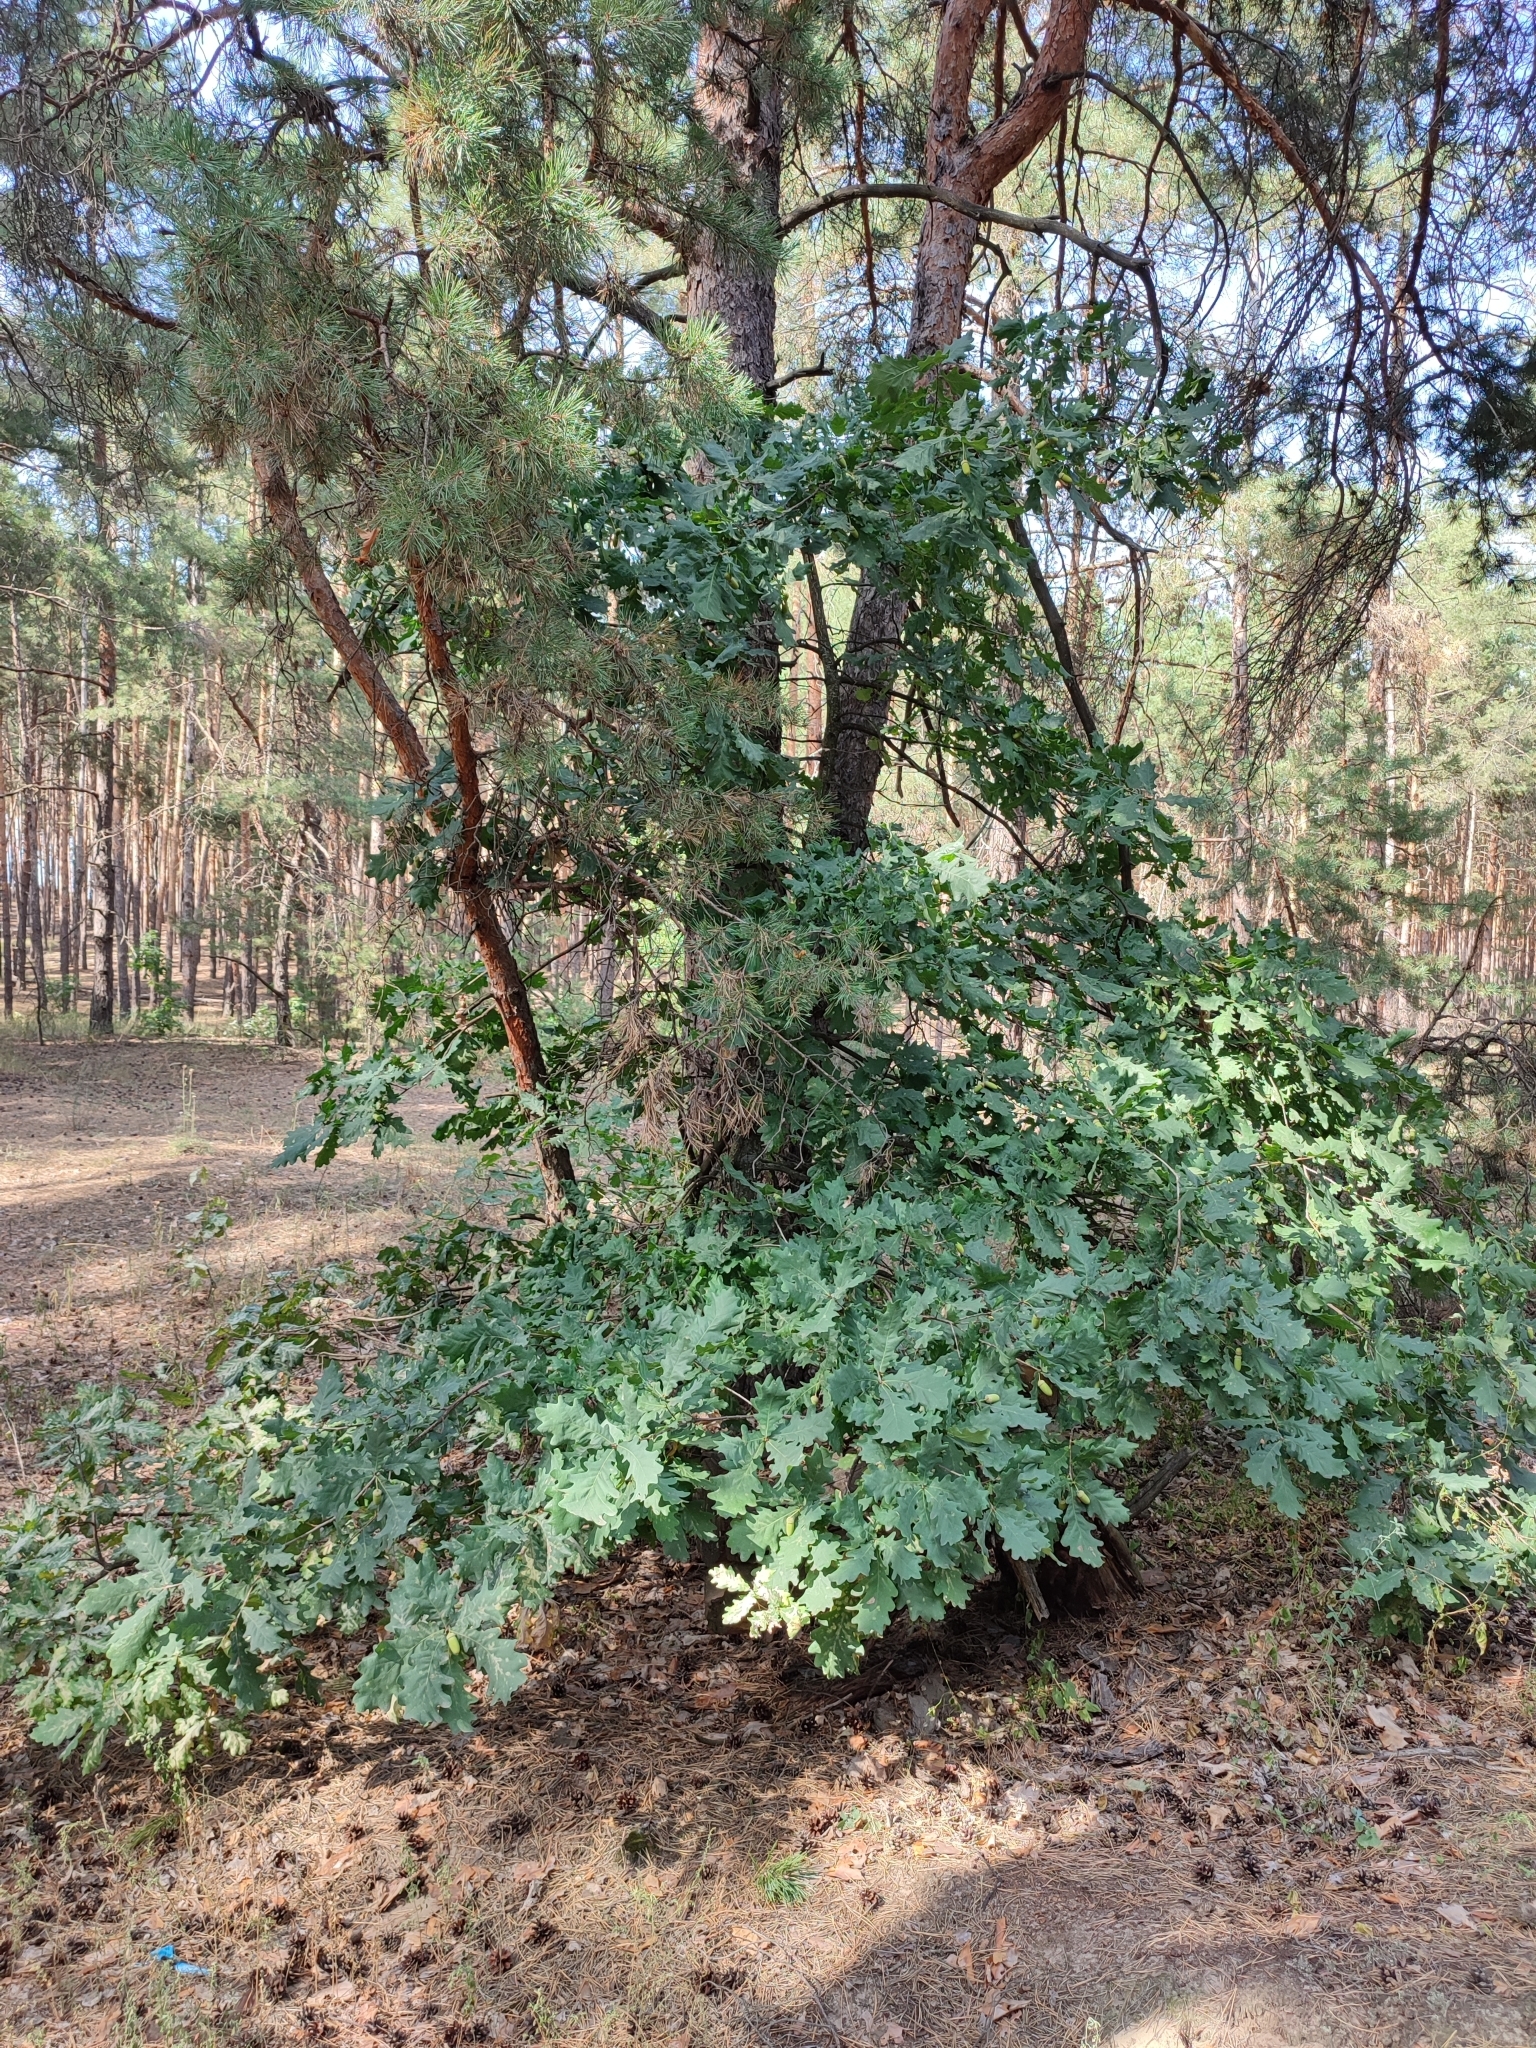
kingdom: Plantae
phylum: Tracheophyta
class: Magnoliopsida
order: Fagales
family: Fagaceae
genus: Quercus
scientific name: Quercus robur
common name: Pedunculate oak
